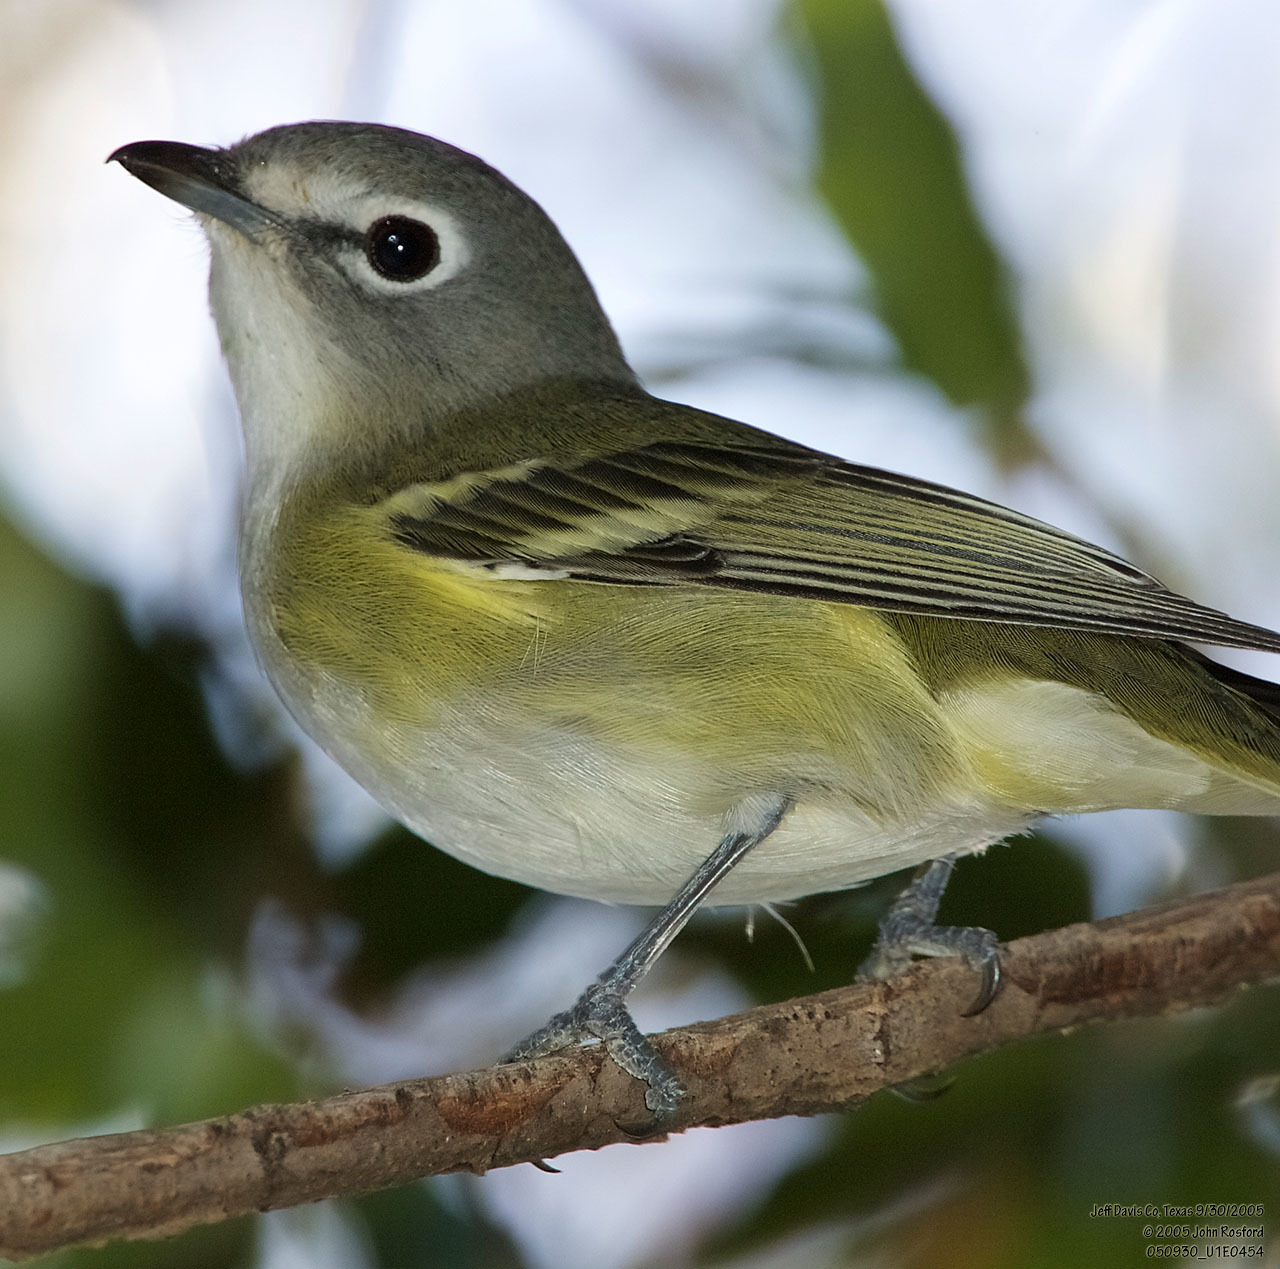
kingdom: Animalia
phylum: Chordata
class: Aves
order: Passeriformes
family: Vireonidae
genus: Vireo
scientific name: Vireo solitarius
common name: Blue-headed vireo
